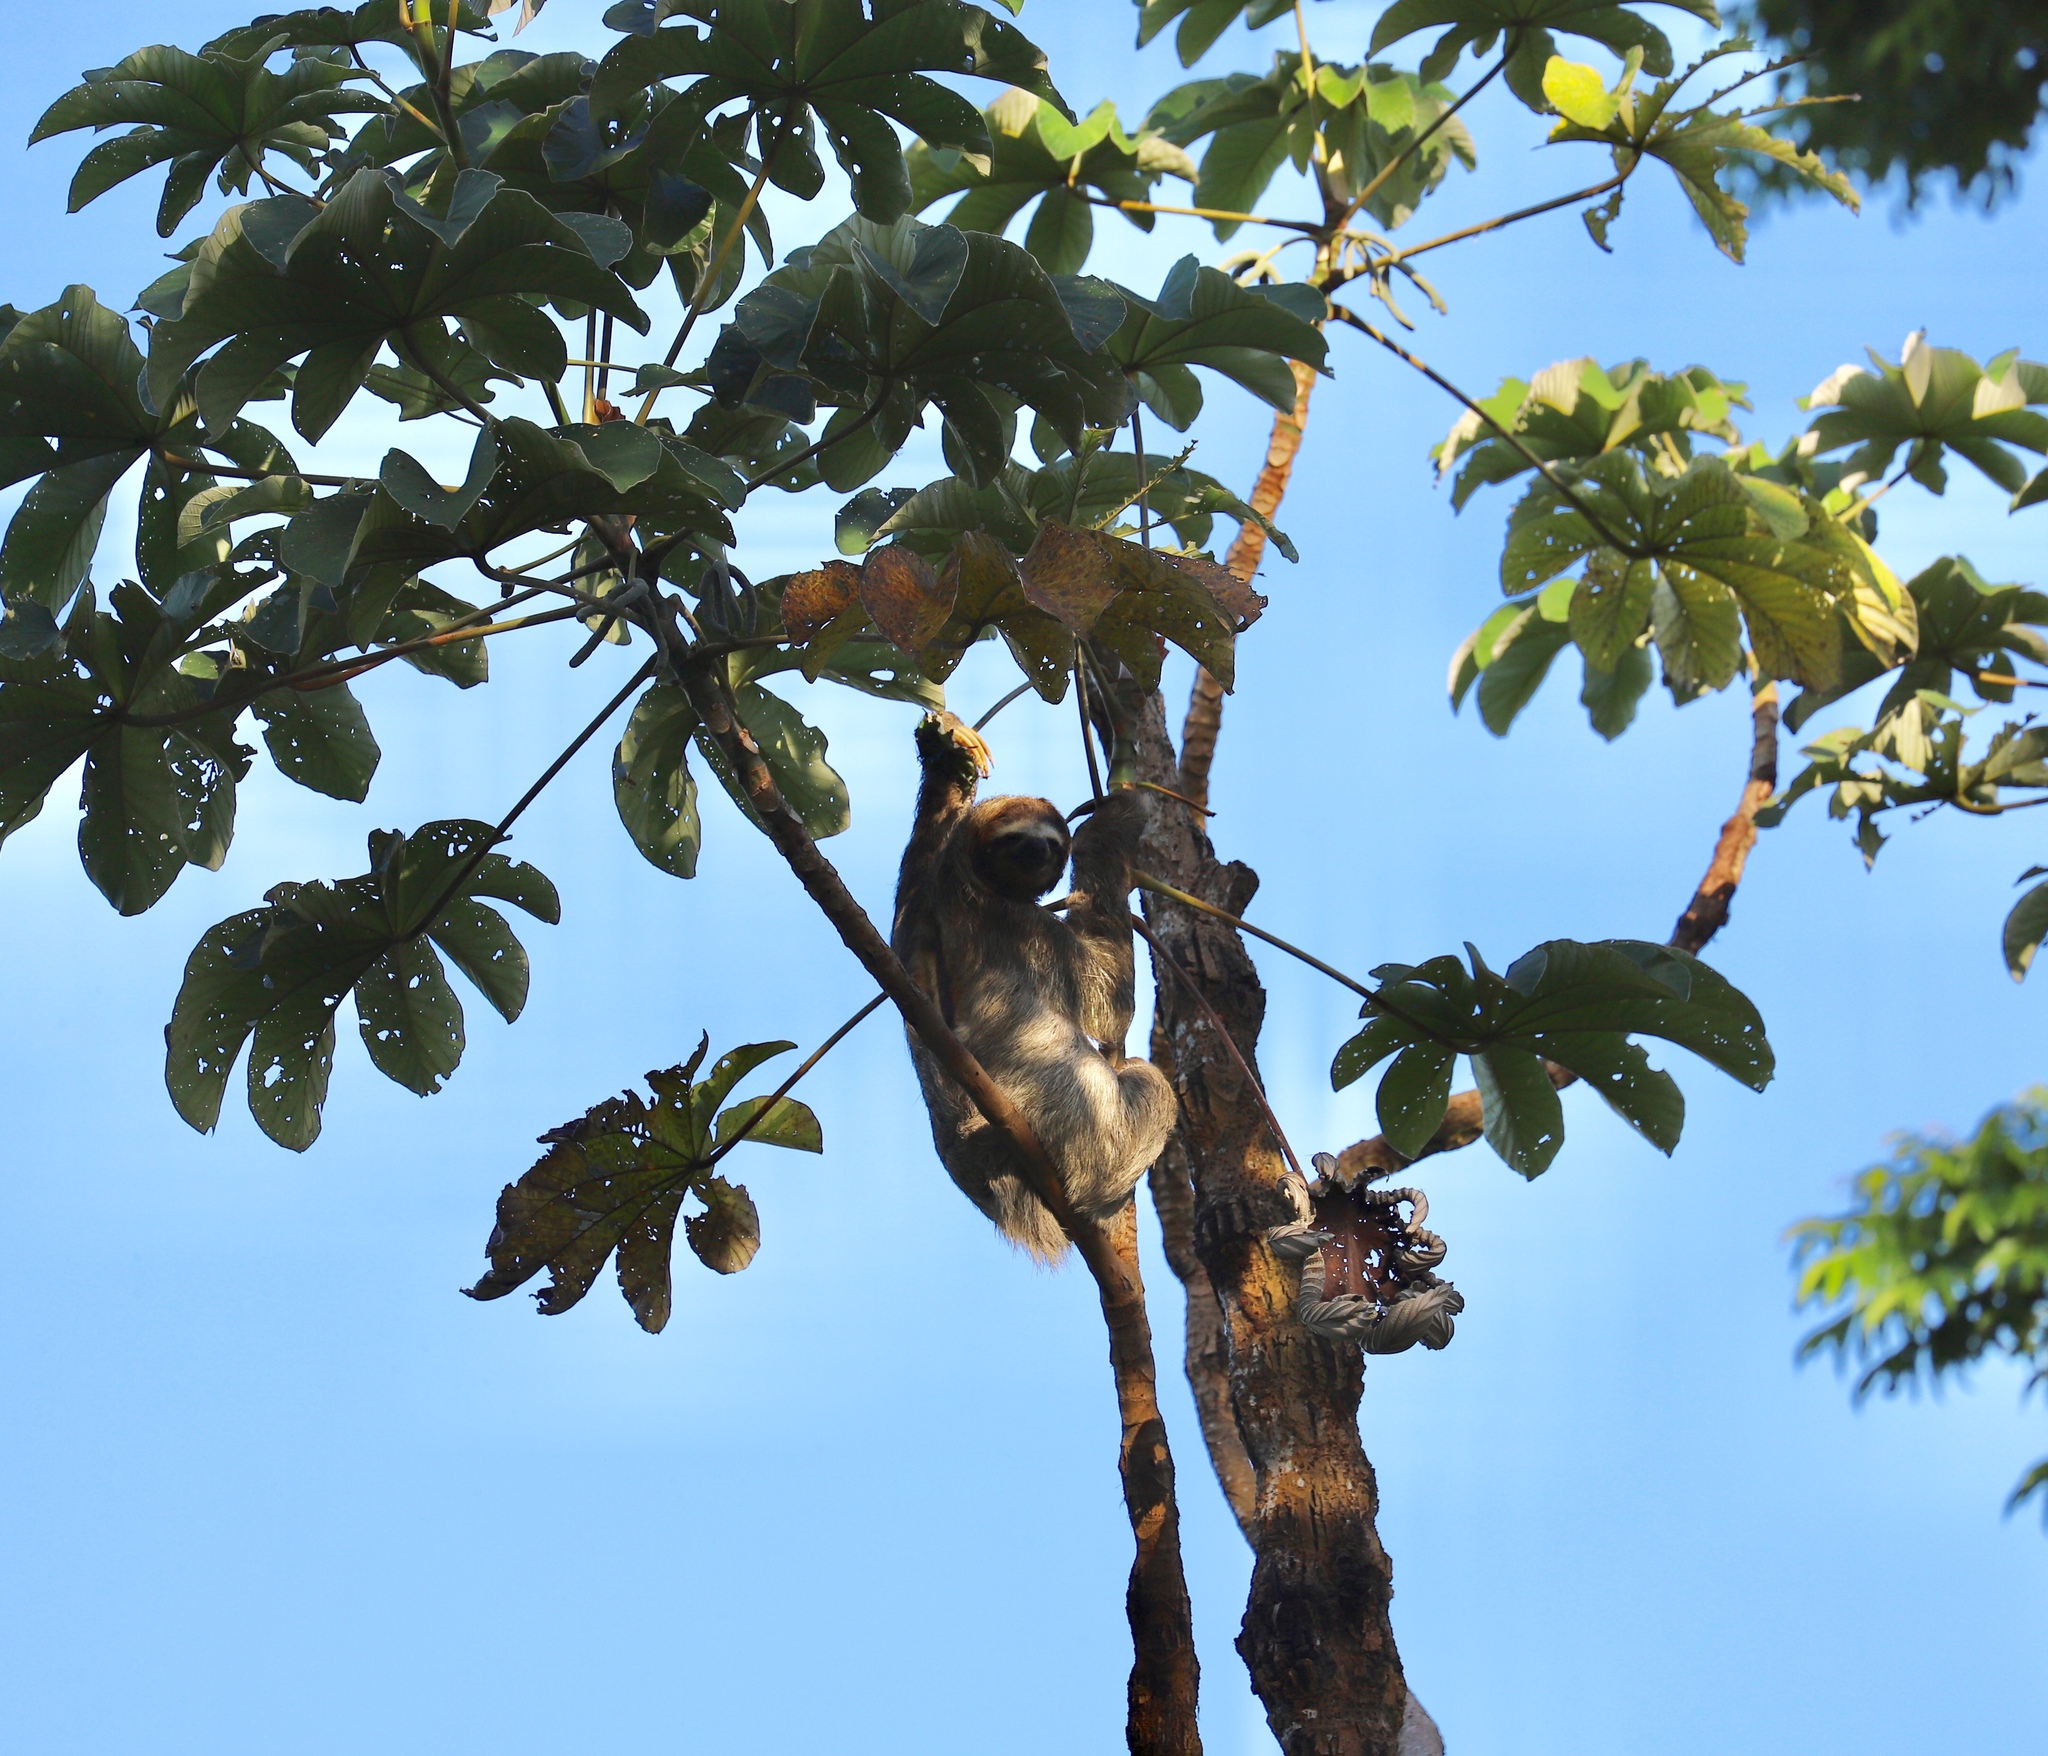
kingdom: Animalia
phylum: Chordata
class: Mammalia
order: Pilosa
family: Bradypodidae
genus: Bradypus
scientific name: Bradypus variegatus
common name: Brown-throated three-toed sloth
